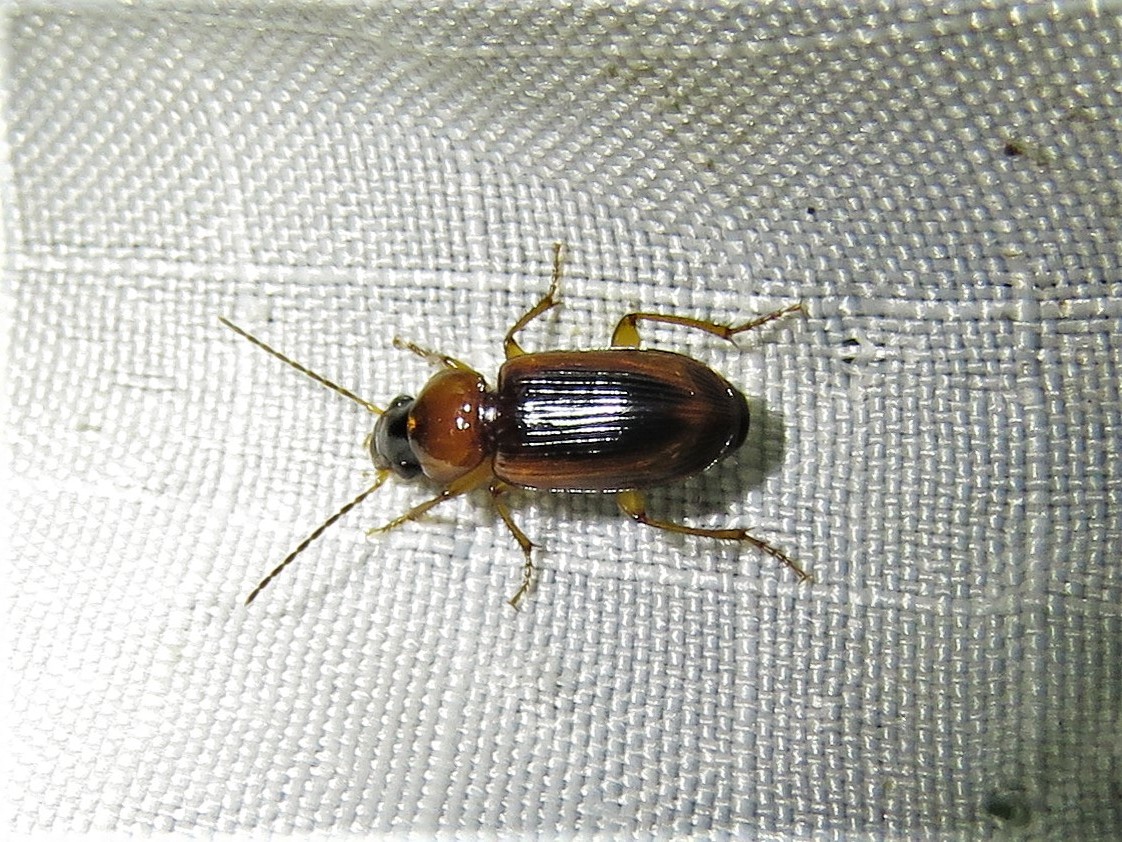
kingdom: Animalia
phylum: Arthropoda
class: Insecta
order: Coleoptera
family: Carabidae
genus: Stenolophus
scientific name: Stenolophus lecontei
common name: Leconte's seedcorn beetle
